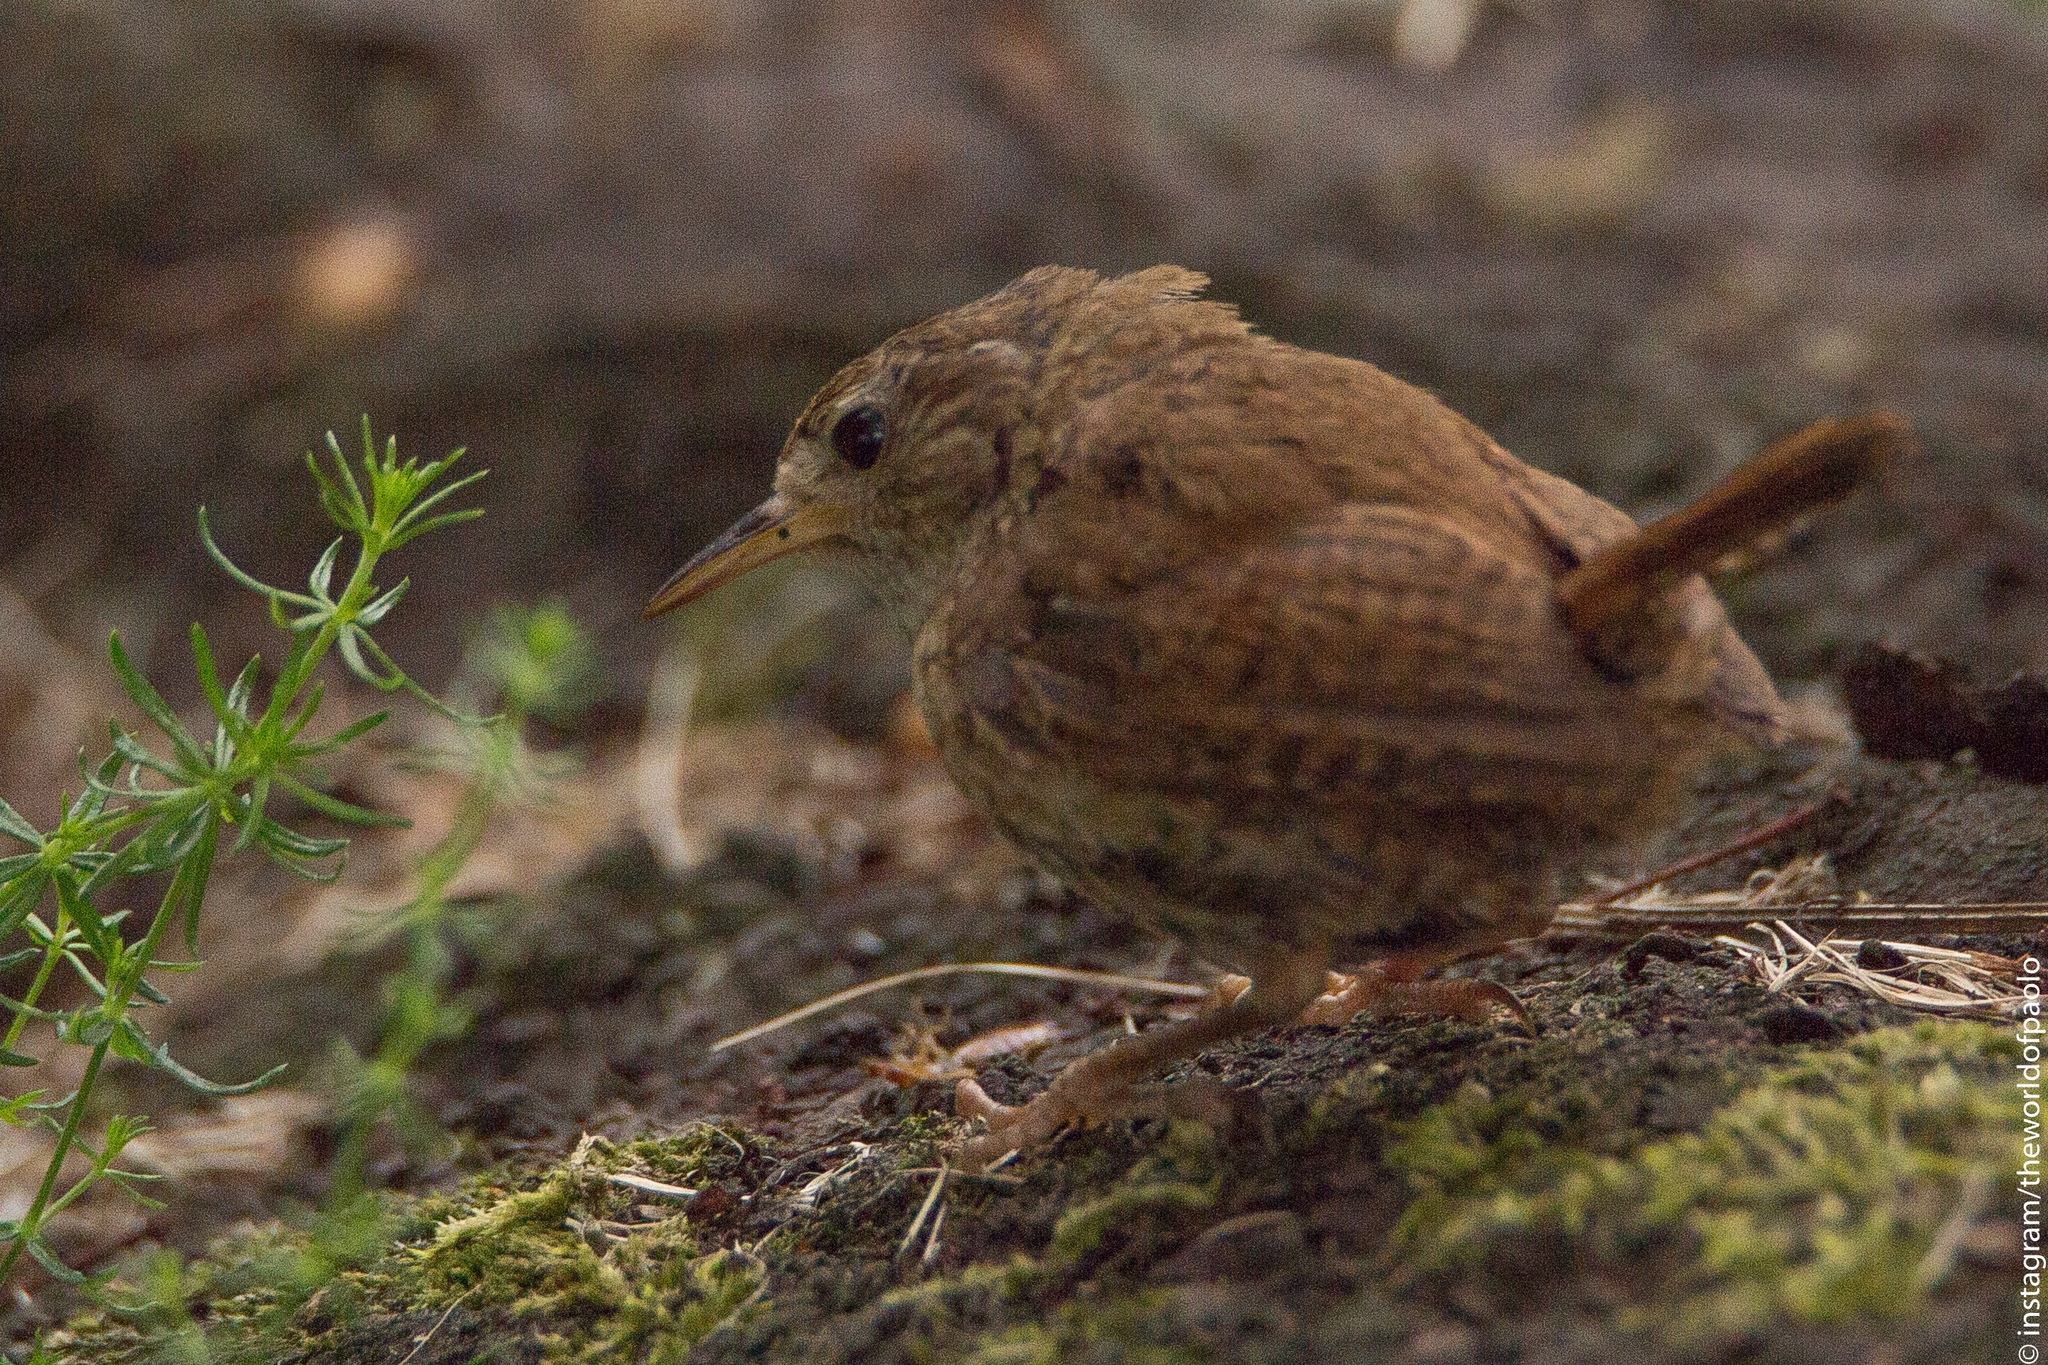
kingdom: Animalia
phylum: Chordata
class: Aves
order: Passeriformes
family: Troglodytidae
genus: Troglodytes
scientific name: Troglodytes troglodytes
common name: Eurasian wren
